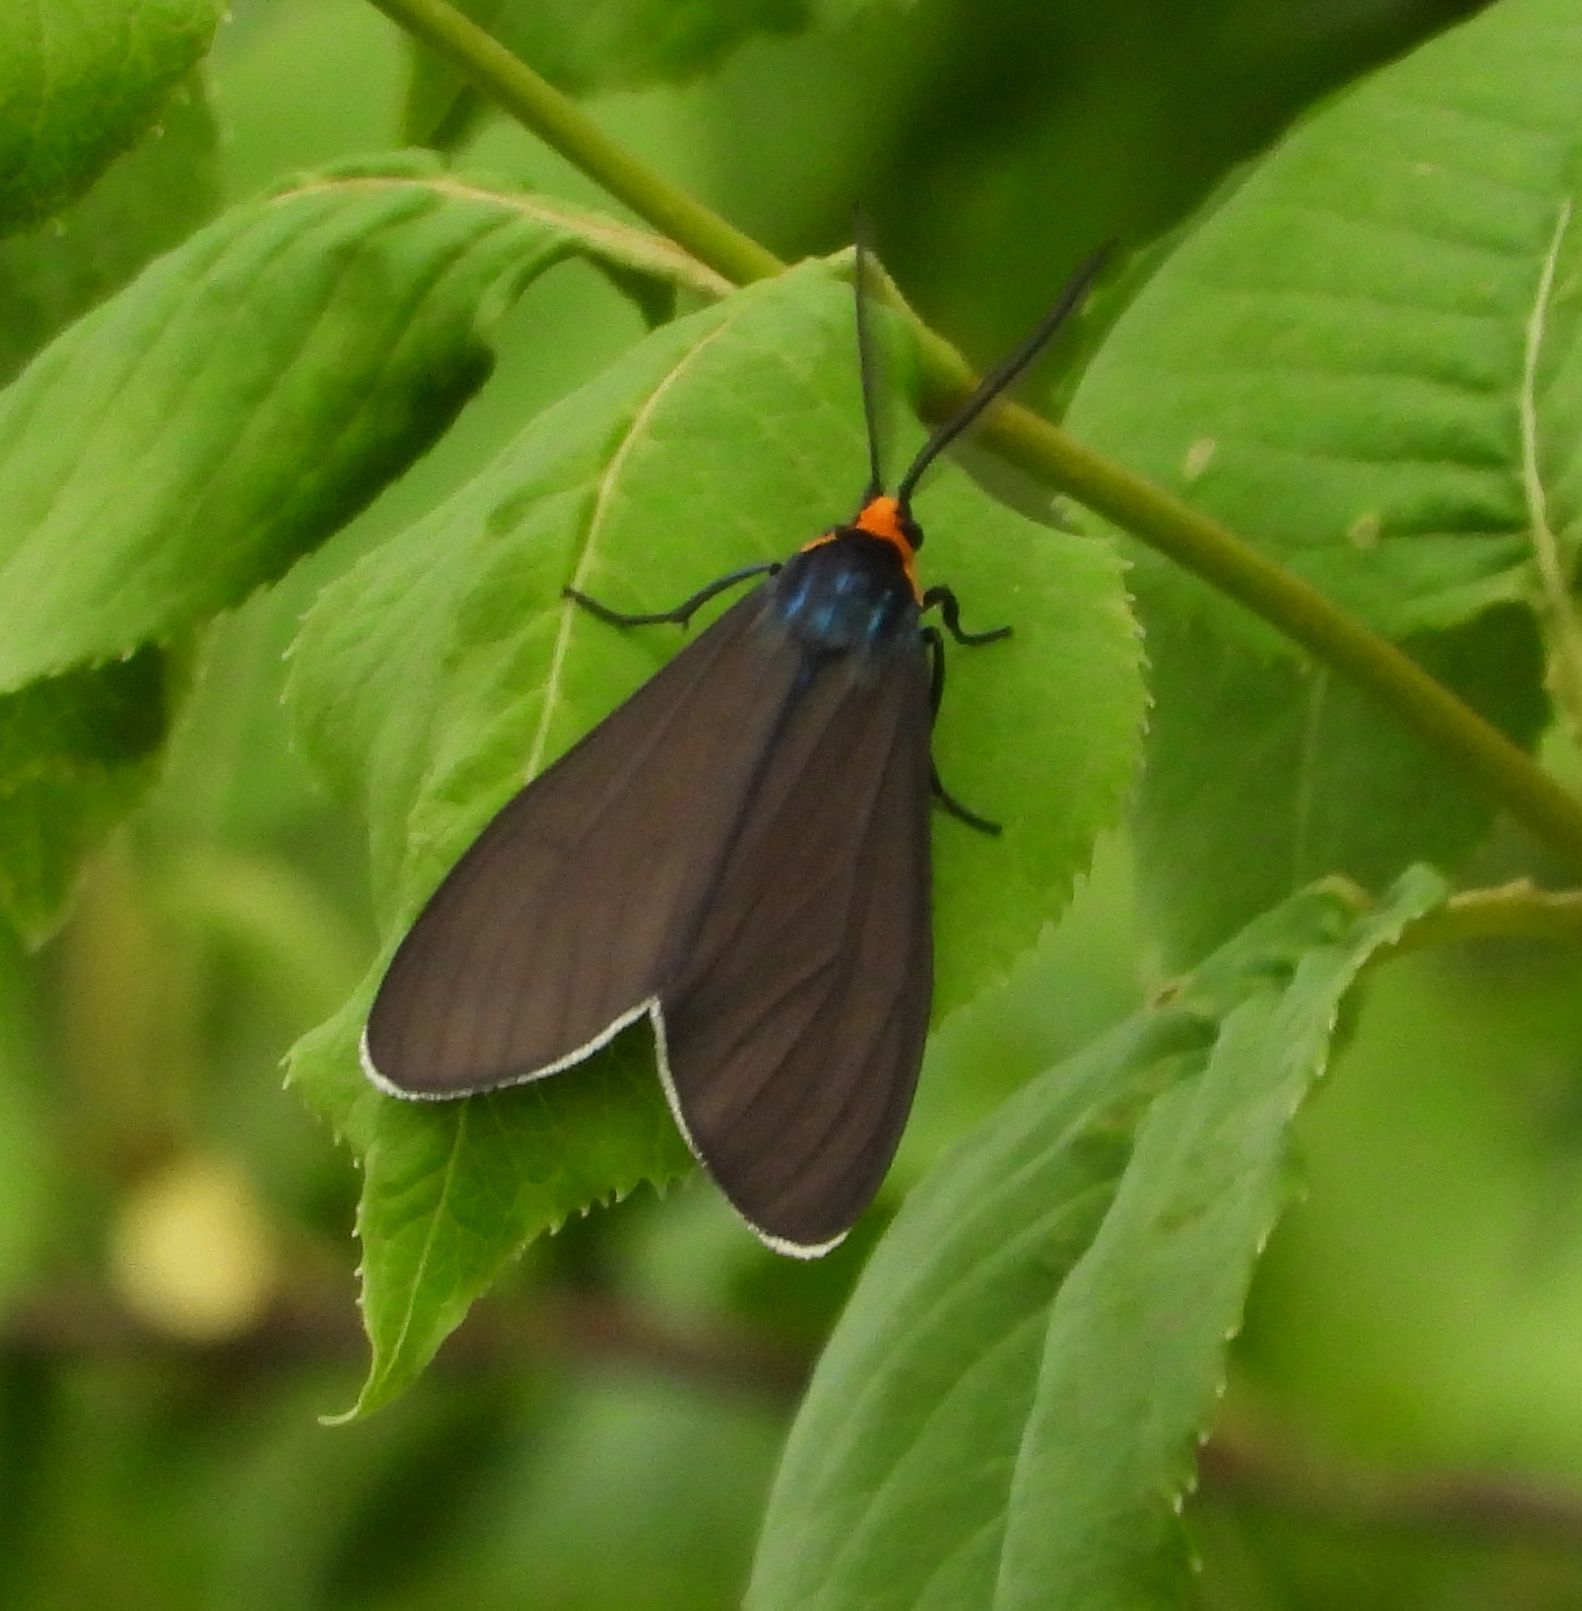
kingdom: Animalia
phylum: Arthropoda
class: Insecta
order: Lepidoptera
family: Erebidae
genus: Ctenucha
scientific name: Ctenucha virginica
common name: Virginia ctenucha moth
